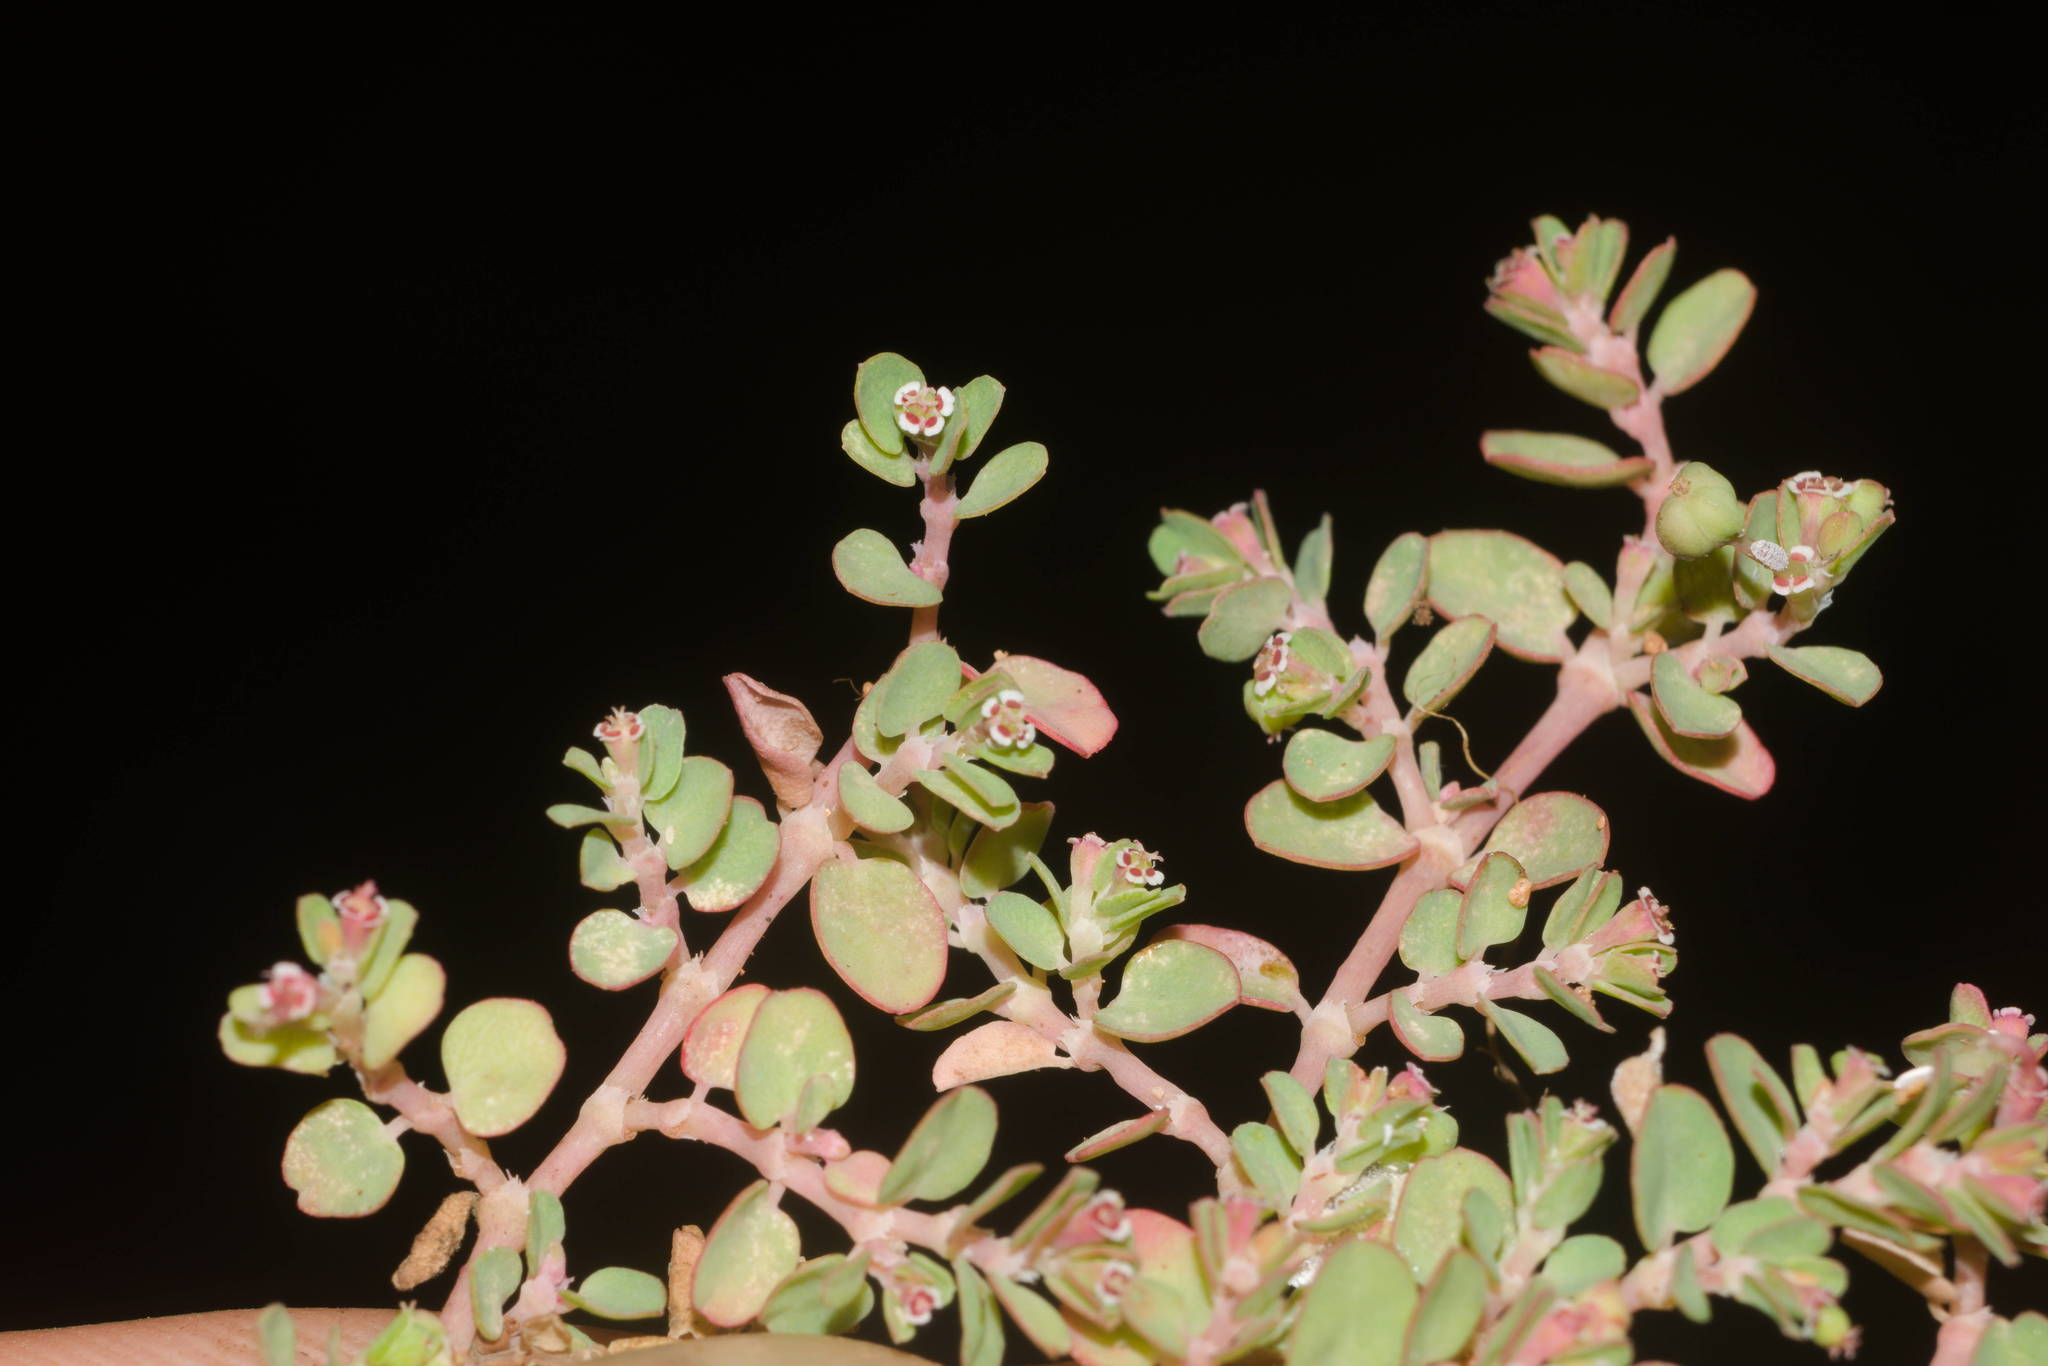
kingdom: Plantae
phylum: Tracheophyta
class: Magnoliopsida
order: Malpighiales
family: Euphorbiaceae
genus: Euphorbia
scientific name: Euphorbia serpens
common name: Matted sandmat
